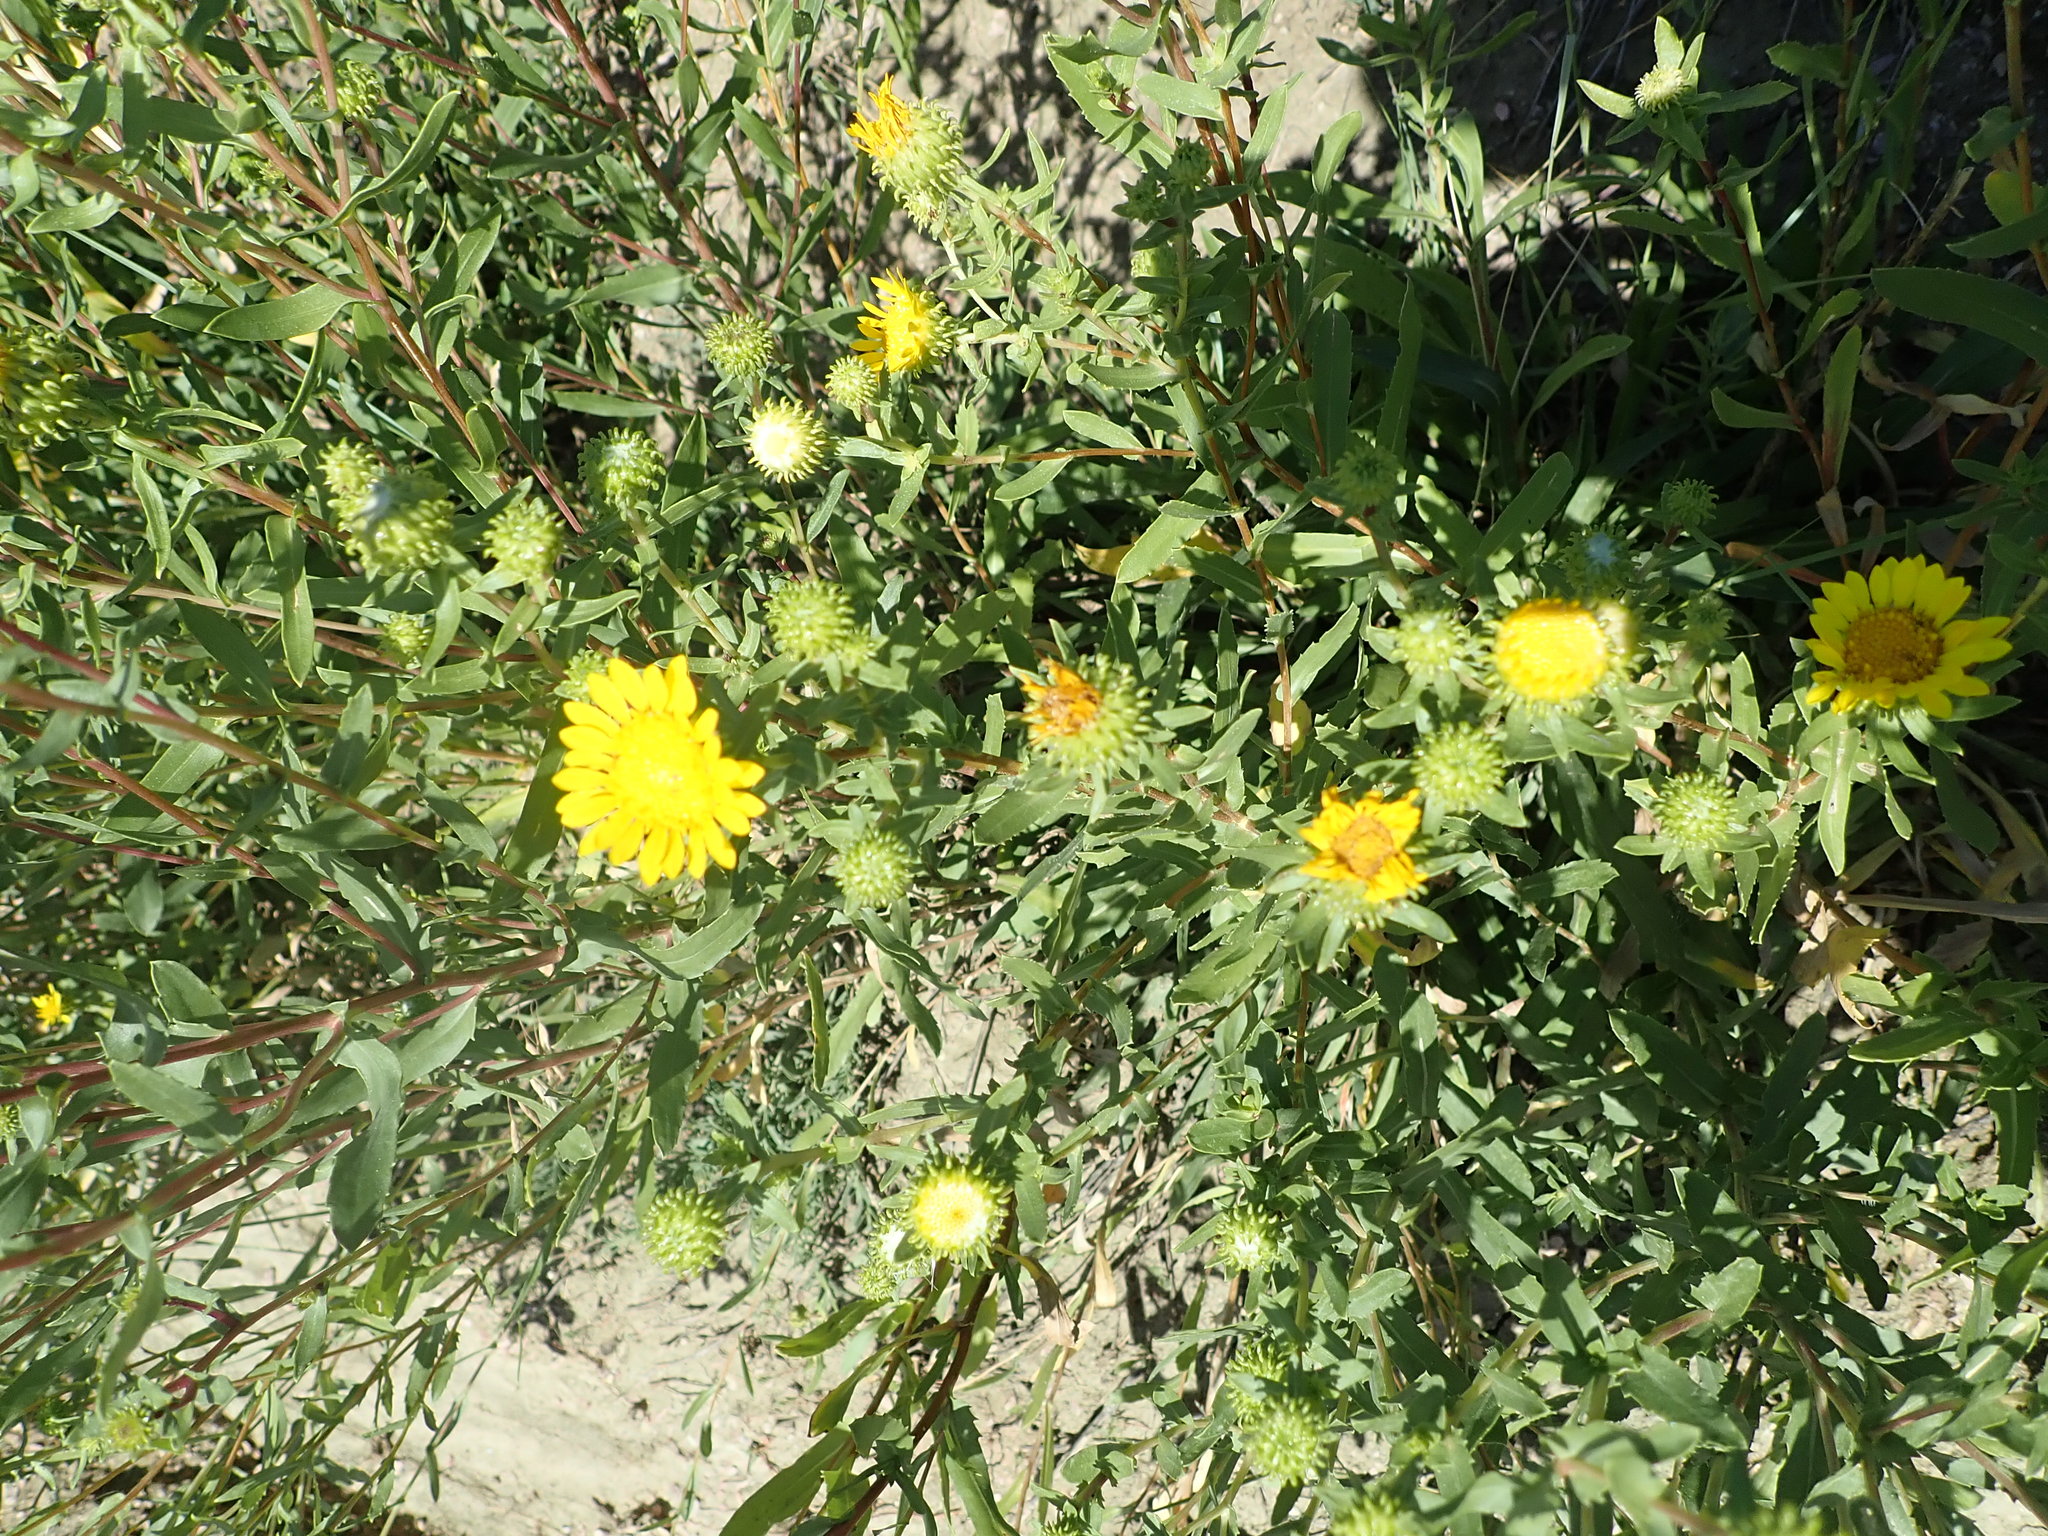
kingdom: Plantae
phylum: Tracheophyta
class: Magnoliopsida
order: Asterales
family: Asteraceae
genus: Grindelia
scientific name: Grindelia squarrosa
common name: Curly-cup gumweed
